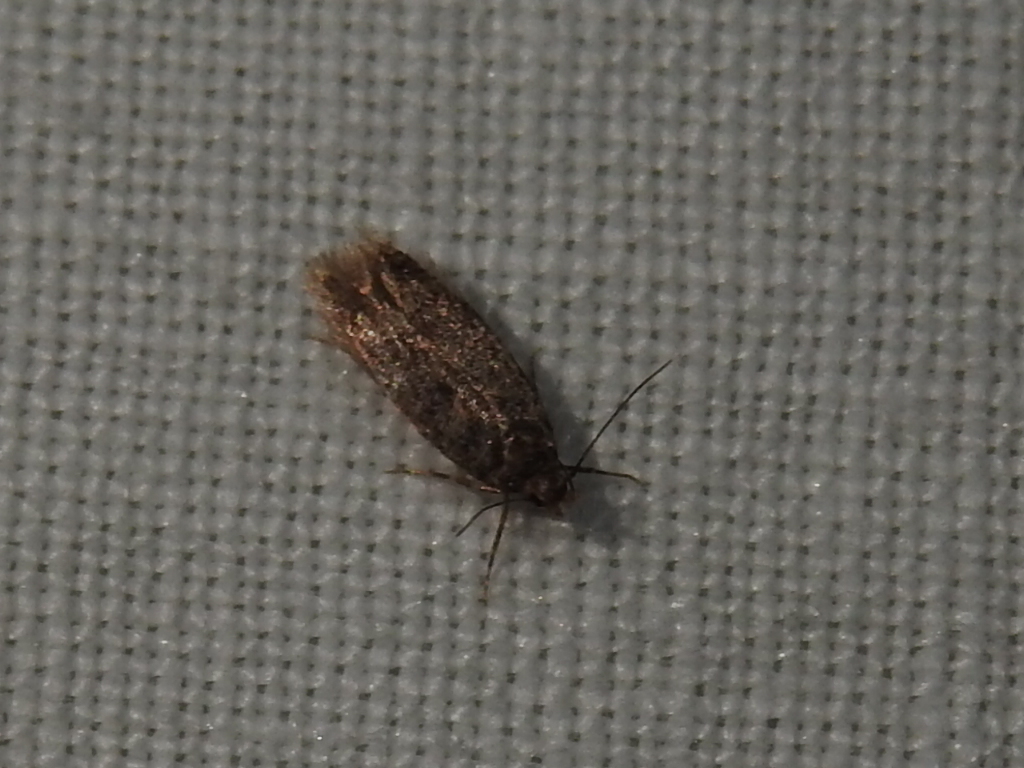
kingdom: Animalia
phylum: Arthropoda
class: Insecta
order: Lepidoptera
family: Oecophoridae
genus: Hofmannophila
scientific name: Hofmannophila pseudospretella
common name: Brown house moth
